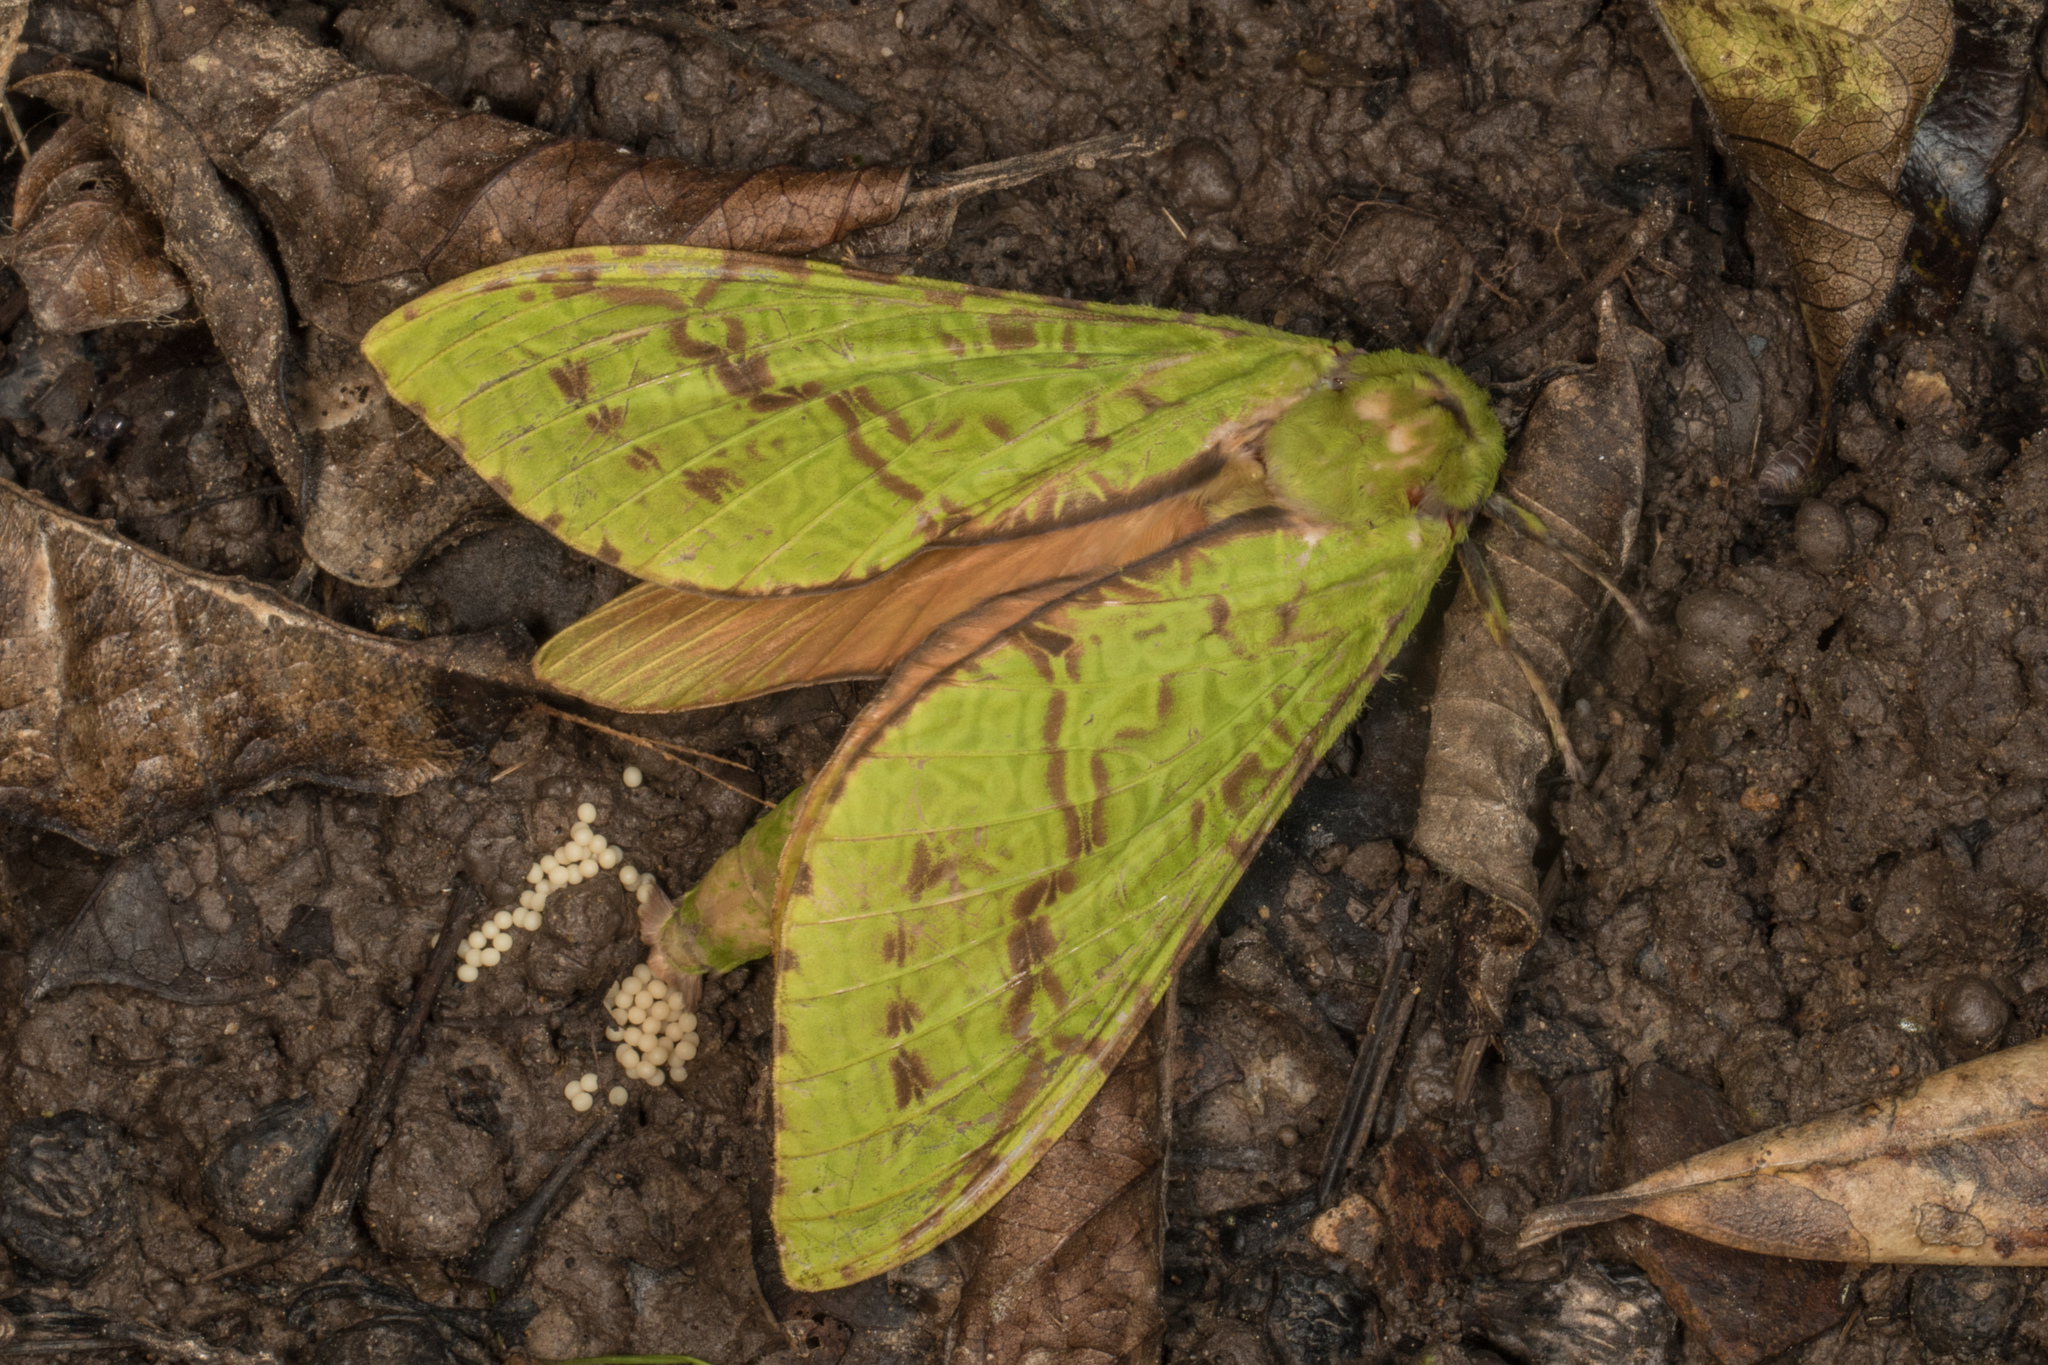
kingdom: Animalia
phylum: Arthropoda
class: Insecta
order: Lepidoptera
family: Hepialidae
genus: Aenetus
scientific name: Aenetus virescens
